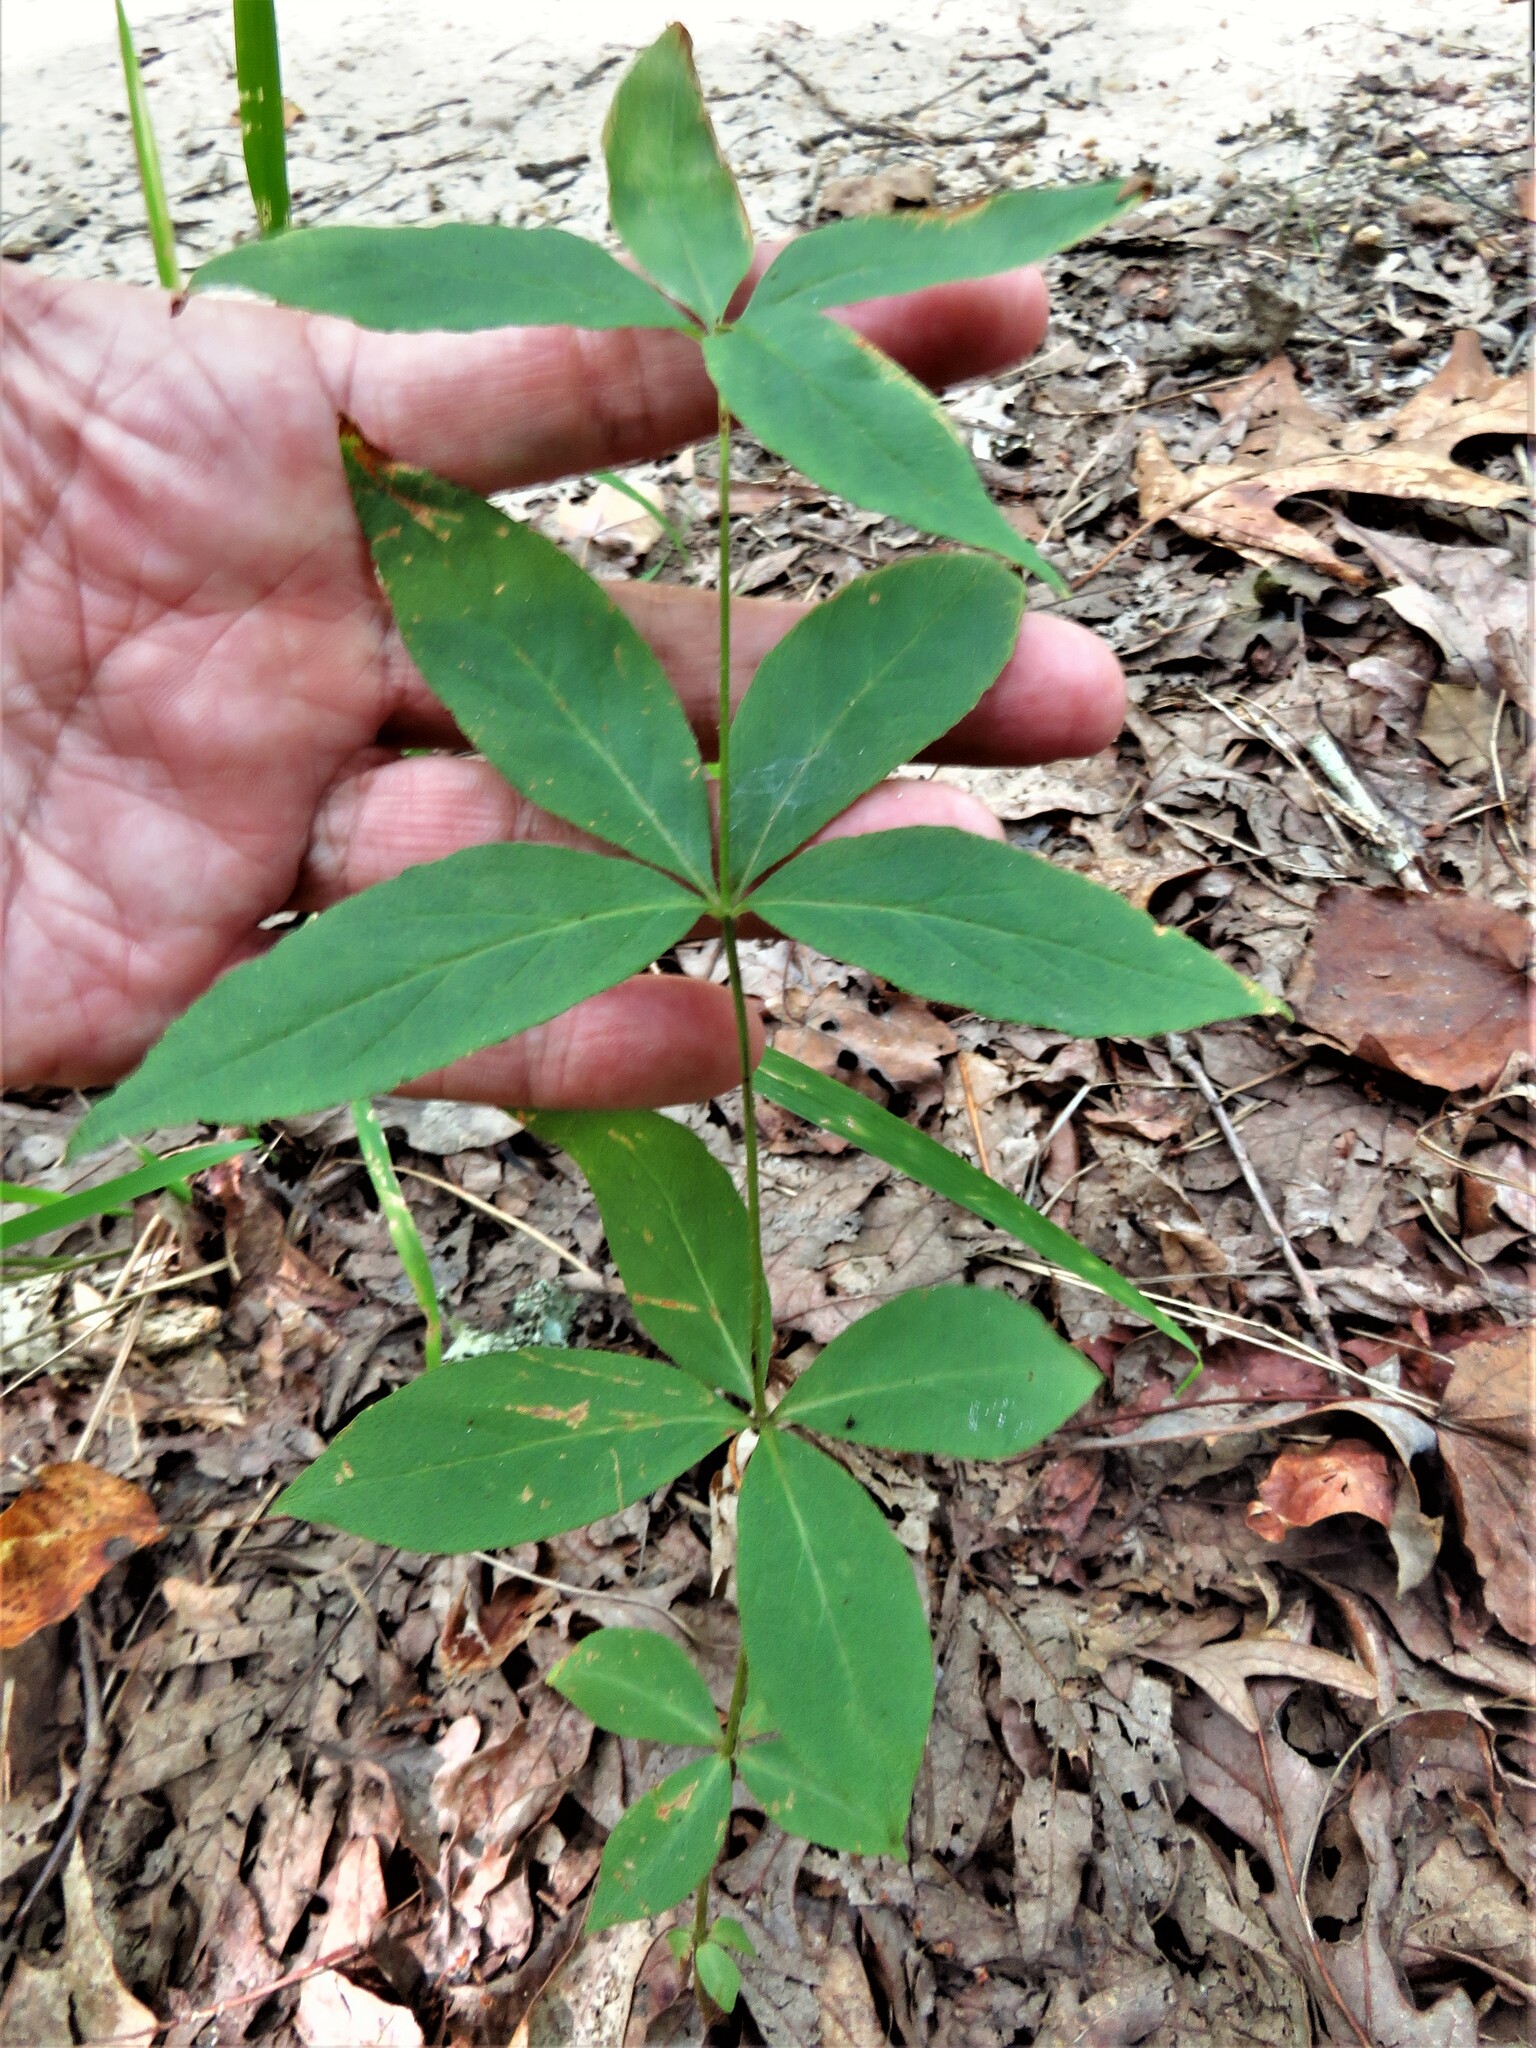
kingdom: Plantae
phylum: Tracheophyta
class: Magnoliopsida
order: Ericales
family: Primulaceae
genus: Lysimachia
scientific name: Lysimachia quadrifolia
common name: Whorled loosestrife
